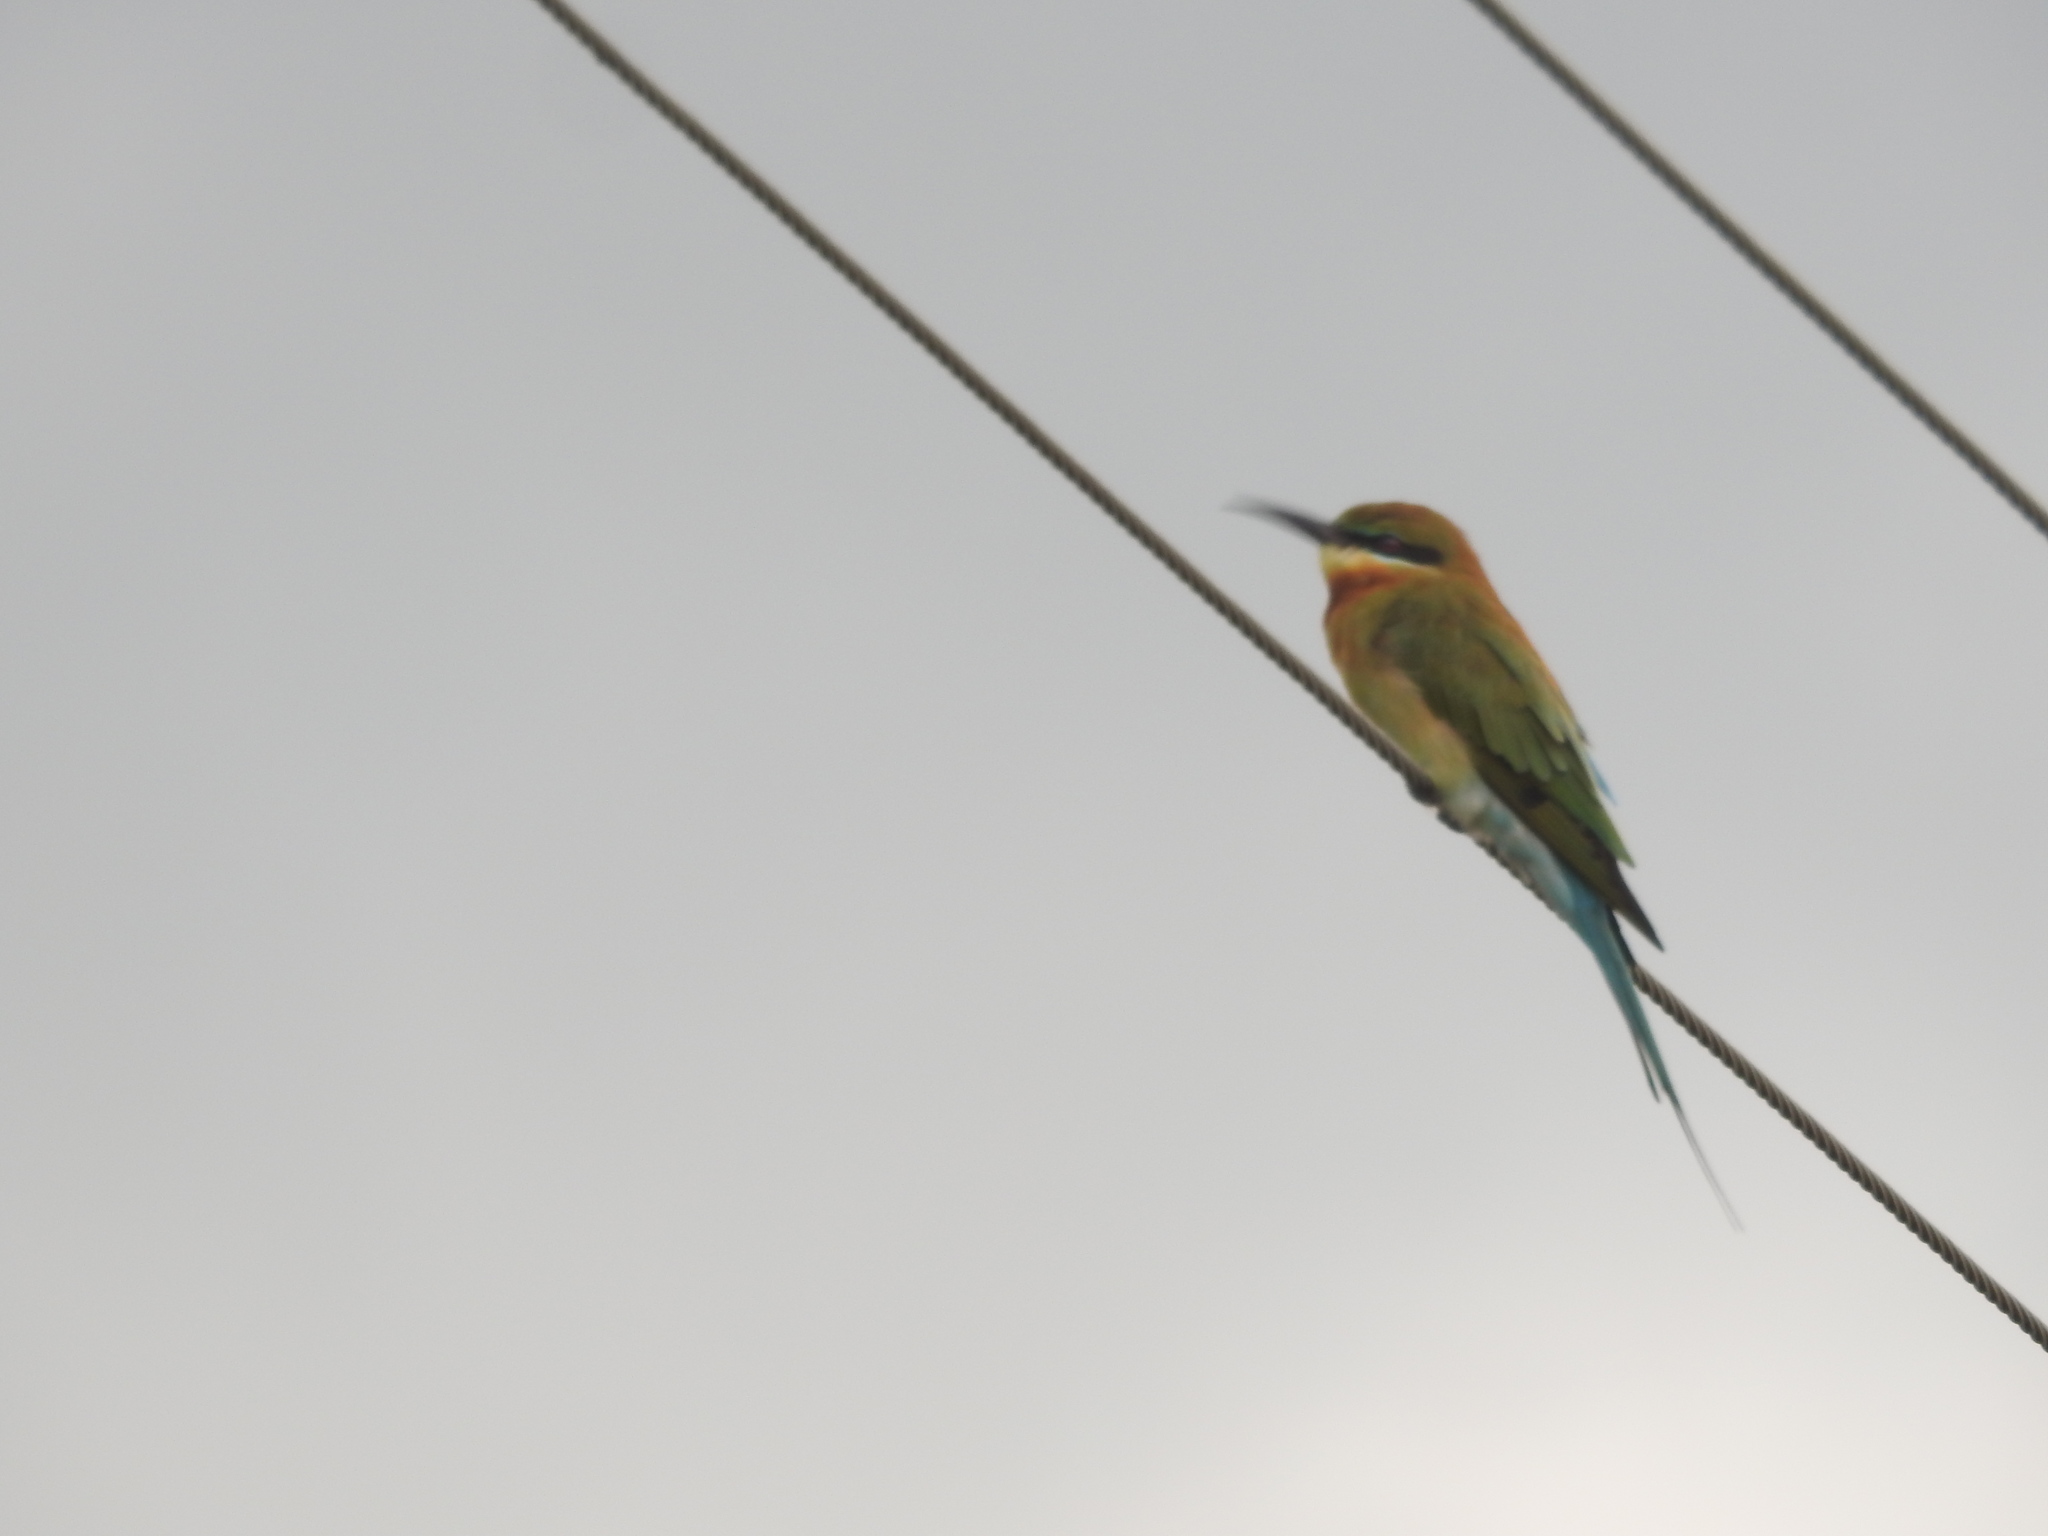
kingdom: Animalia
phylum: Chordata
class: Aves
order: Coraciiformes
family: Meropidae
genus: Merops
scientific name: Merops philippinus
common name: Blue-tailed bee-eater
